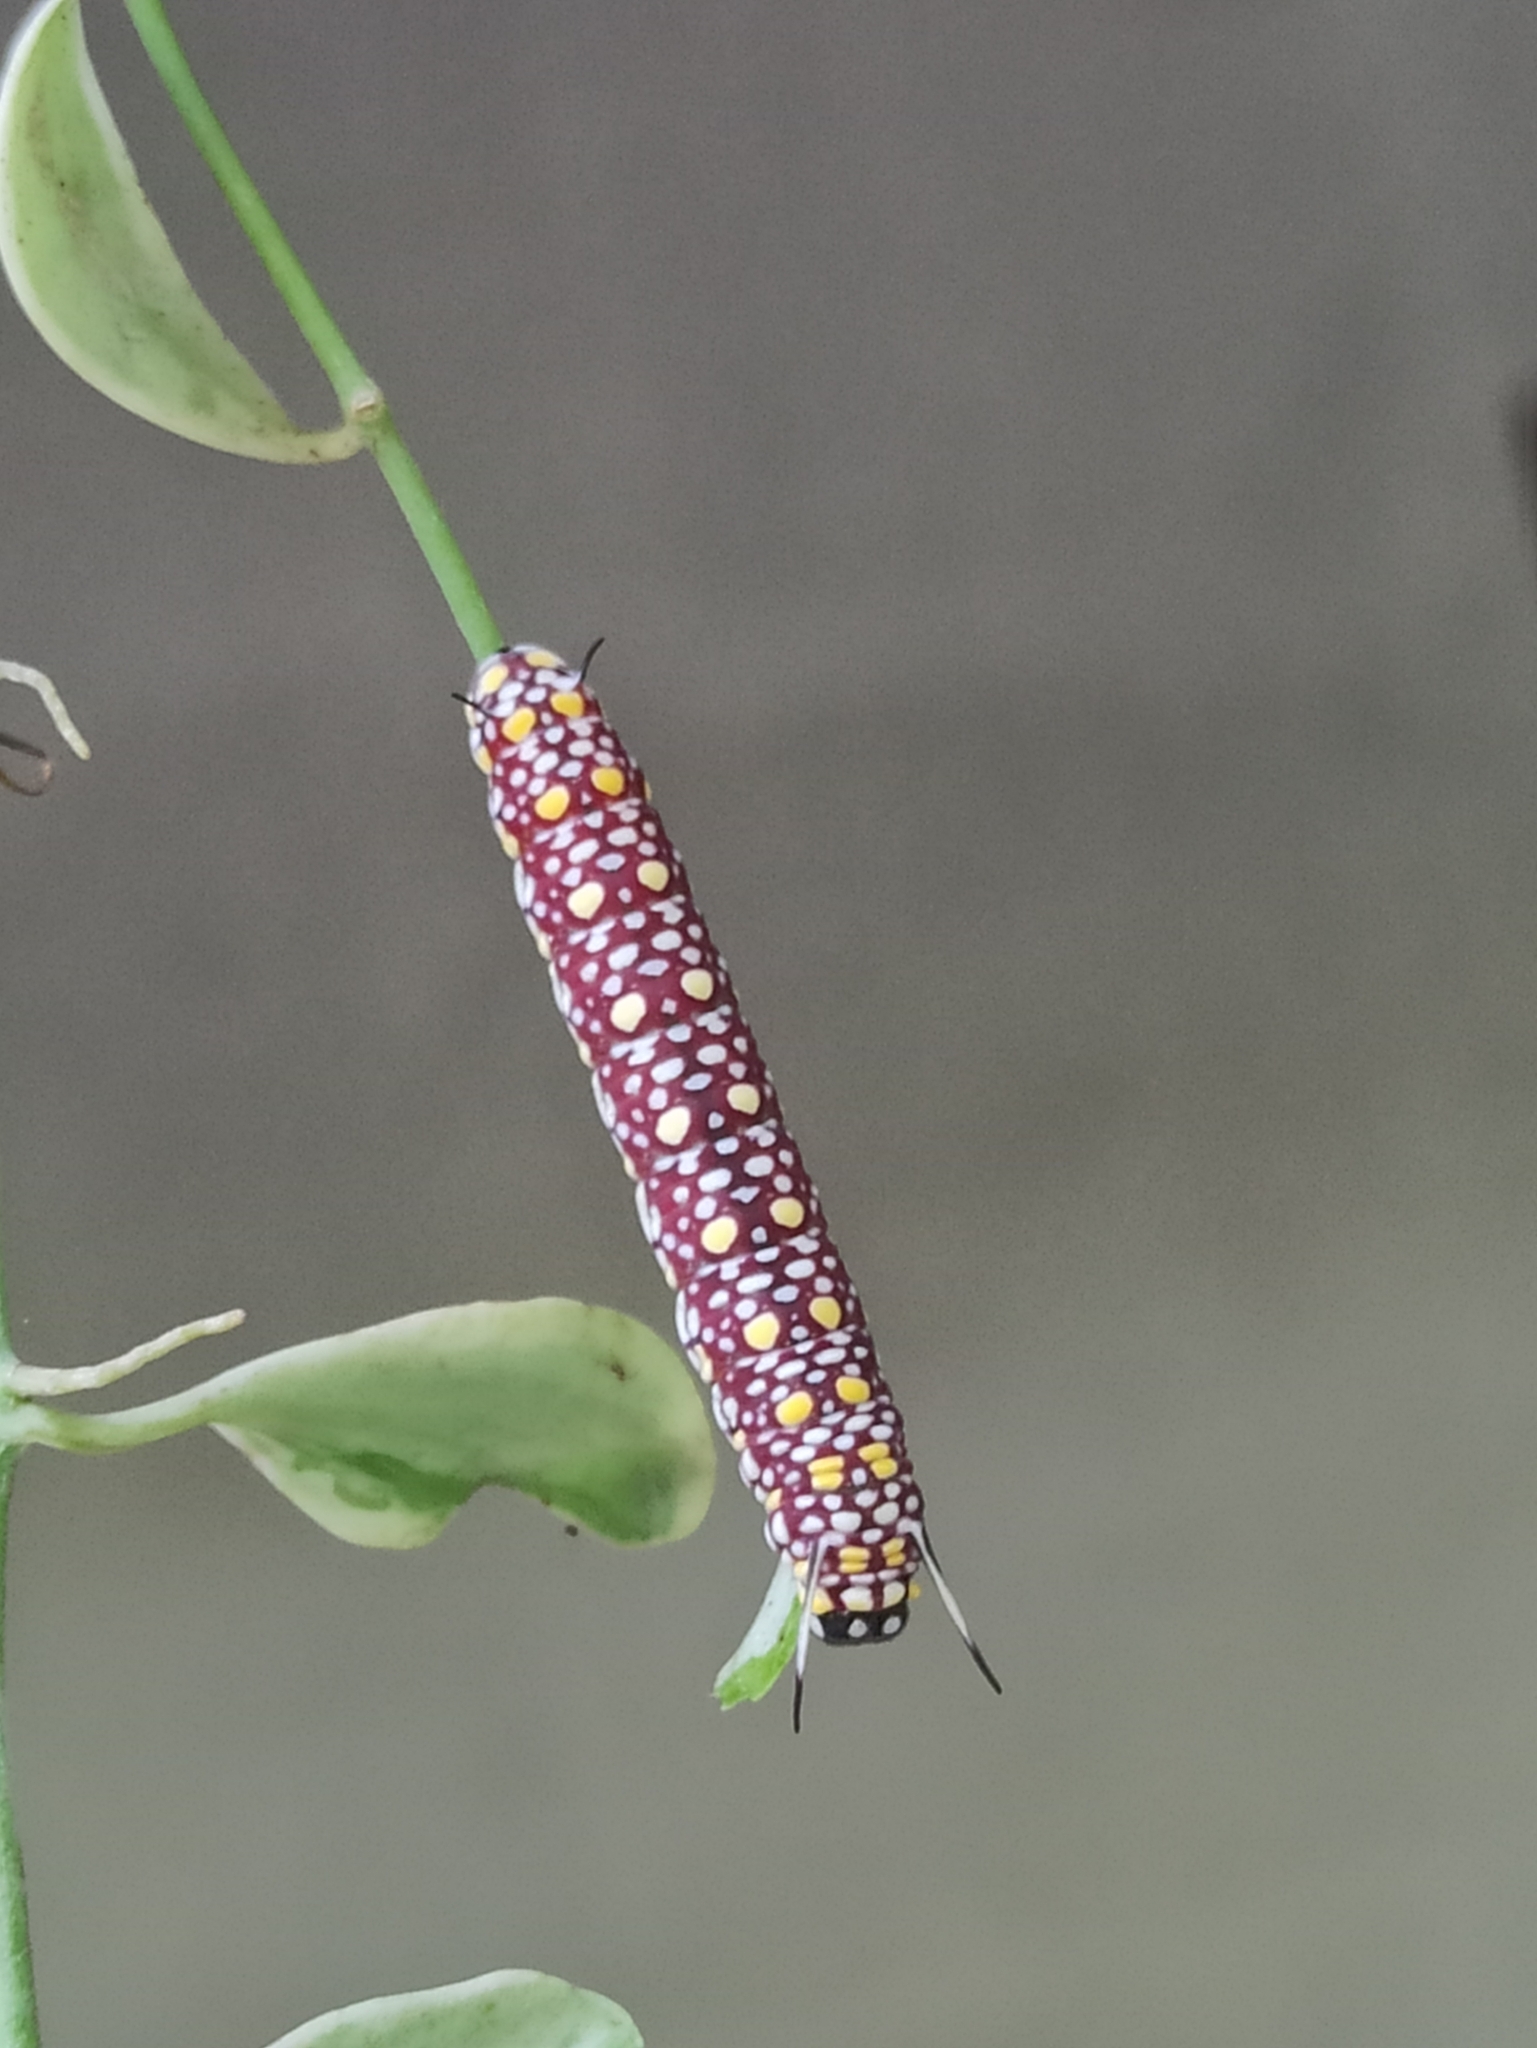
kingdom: Animalia
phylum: Arthropoda
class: Insecta
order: Lepidoptera
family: Nymphalidae
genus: Parantica
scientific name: Parantica aglea
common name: Glassy tiger
